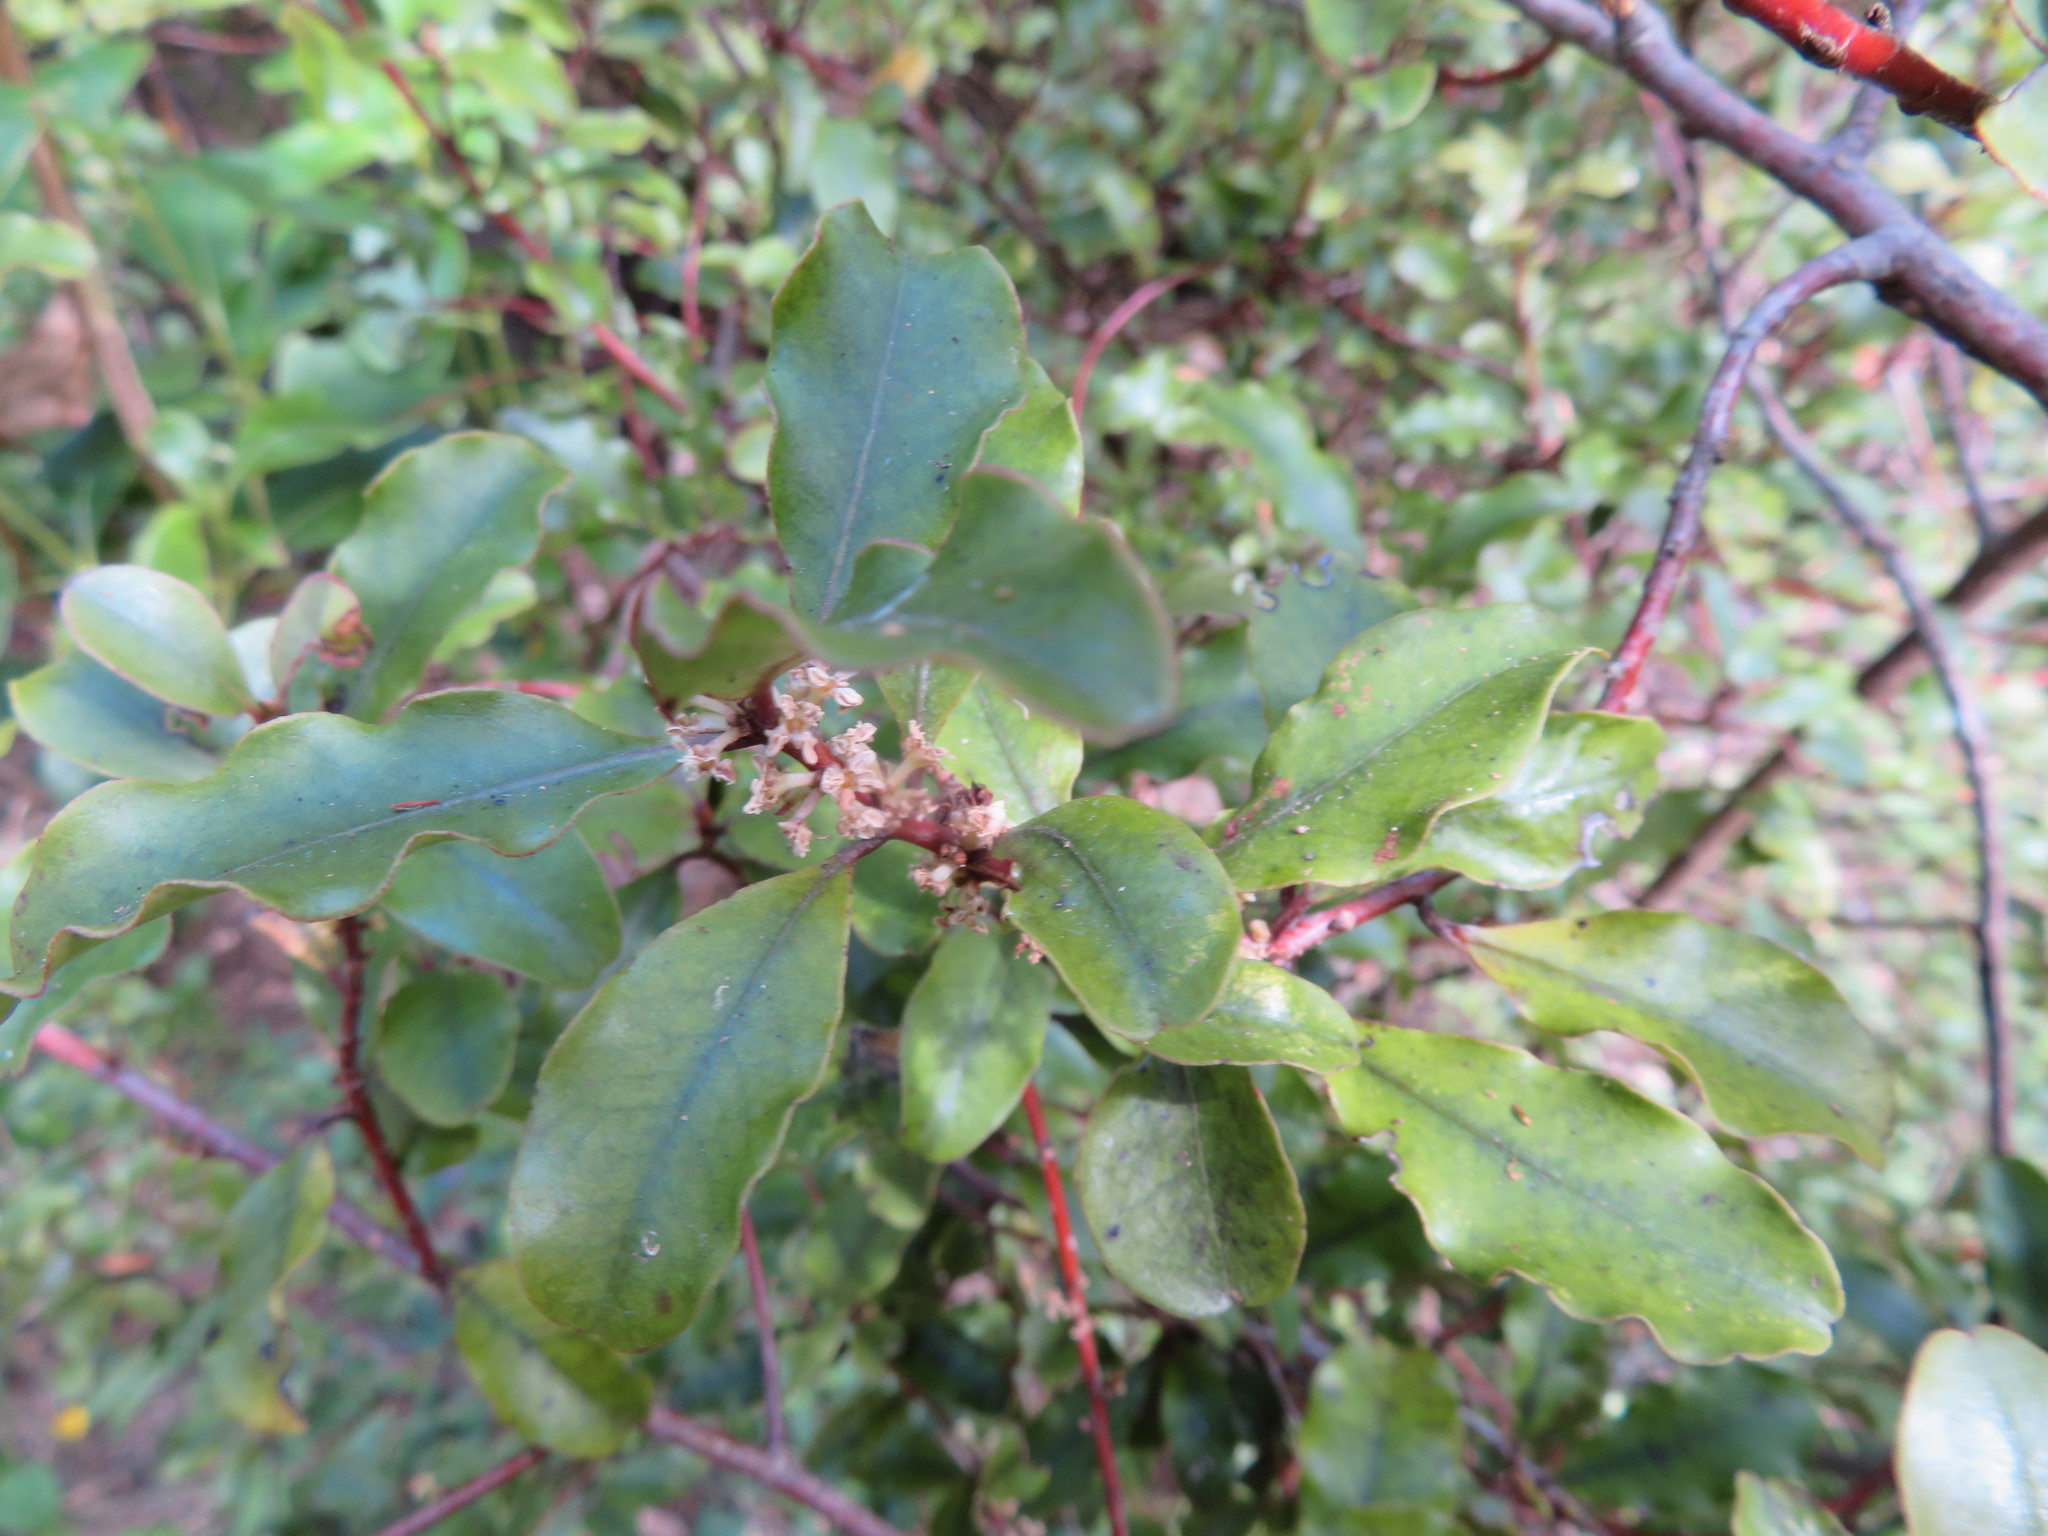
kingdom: Plantae
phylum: Tracheophyta
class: Magnoliopsida
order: Ericales
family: Primulaceae
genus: Myrsine
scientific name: Myrsine australis
